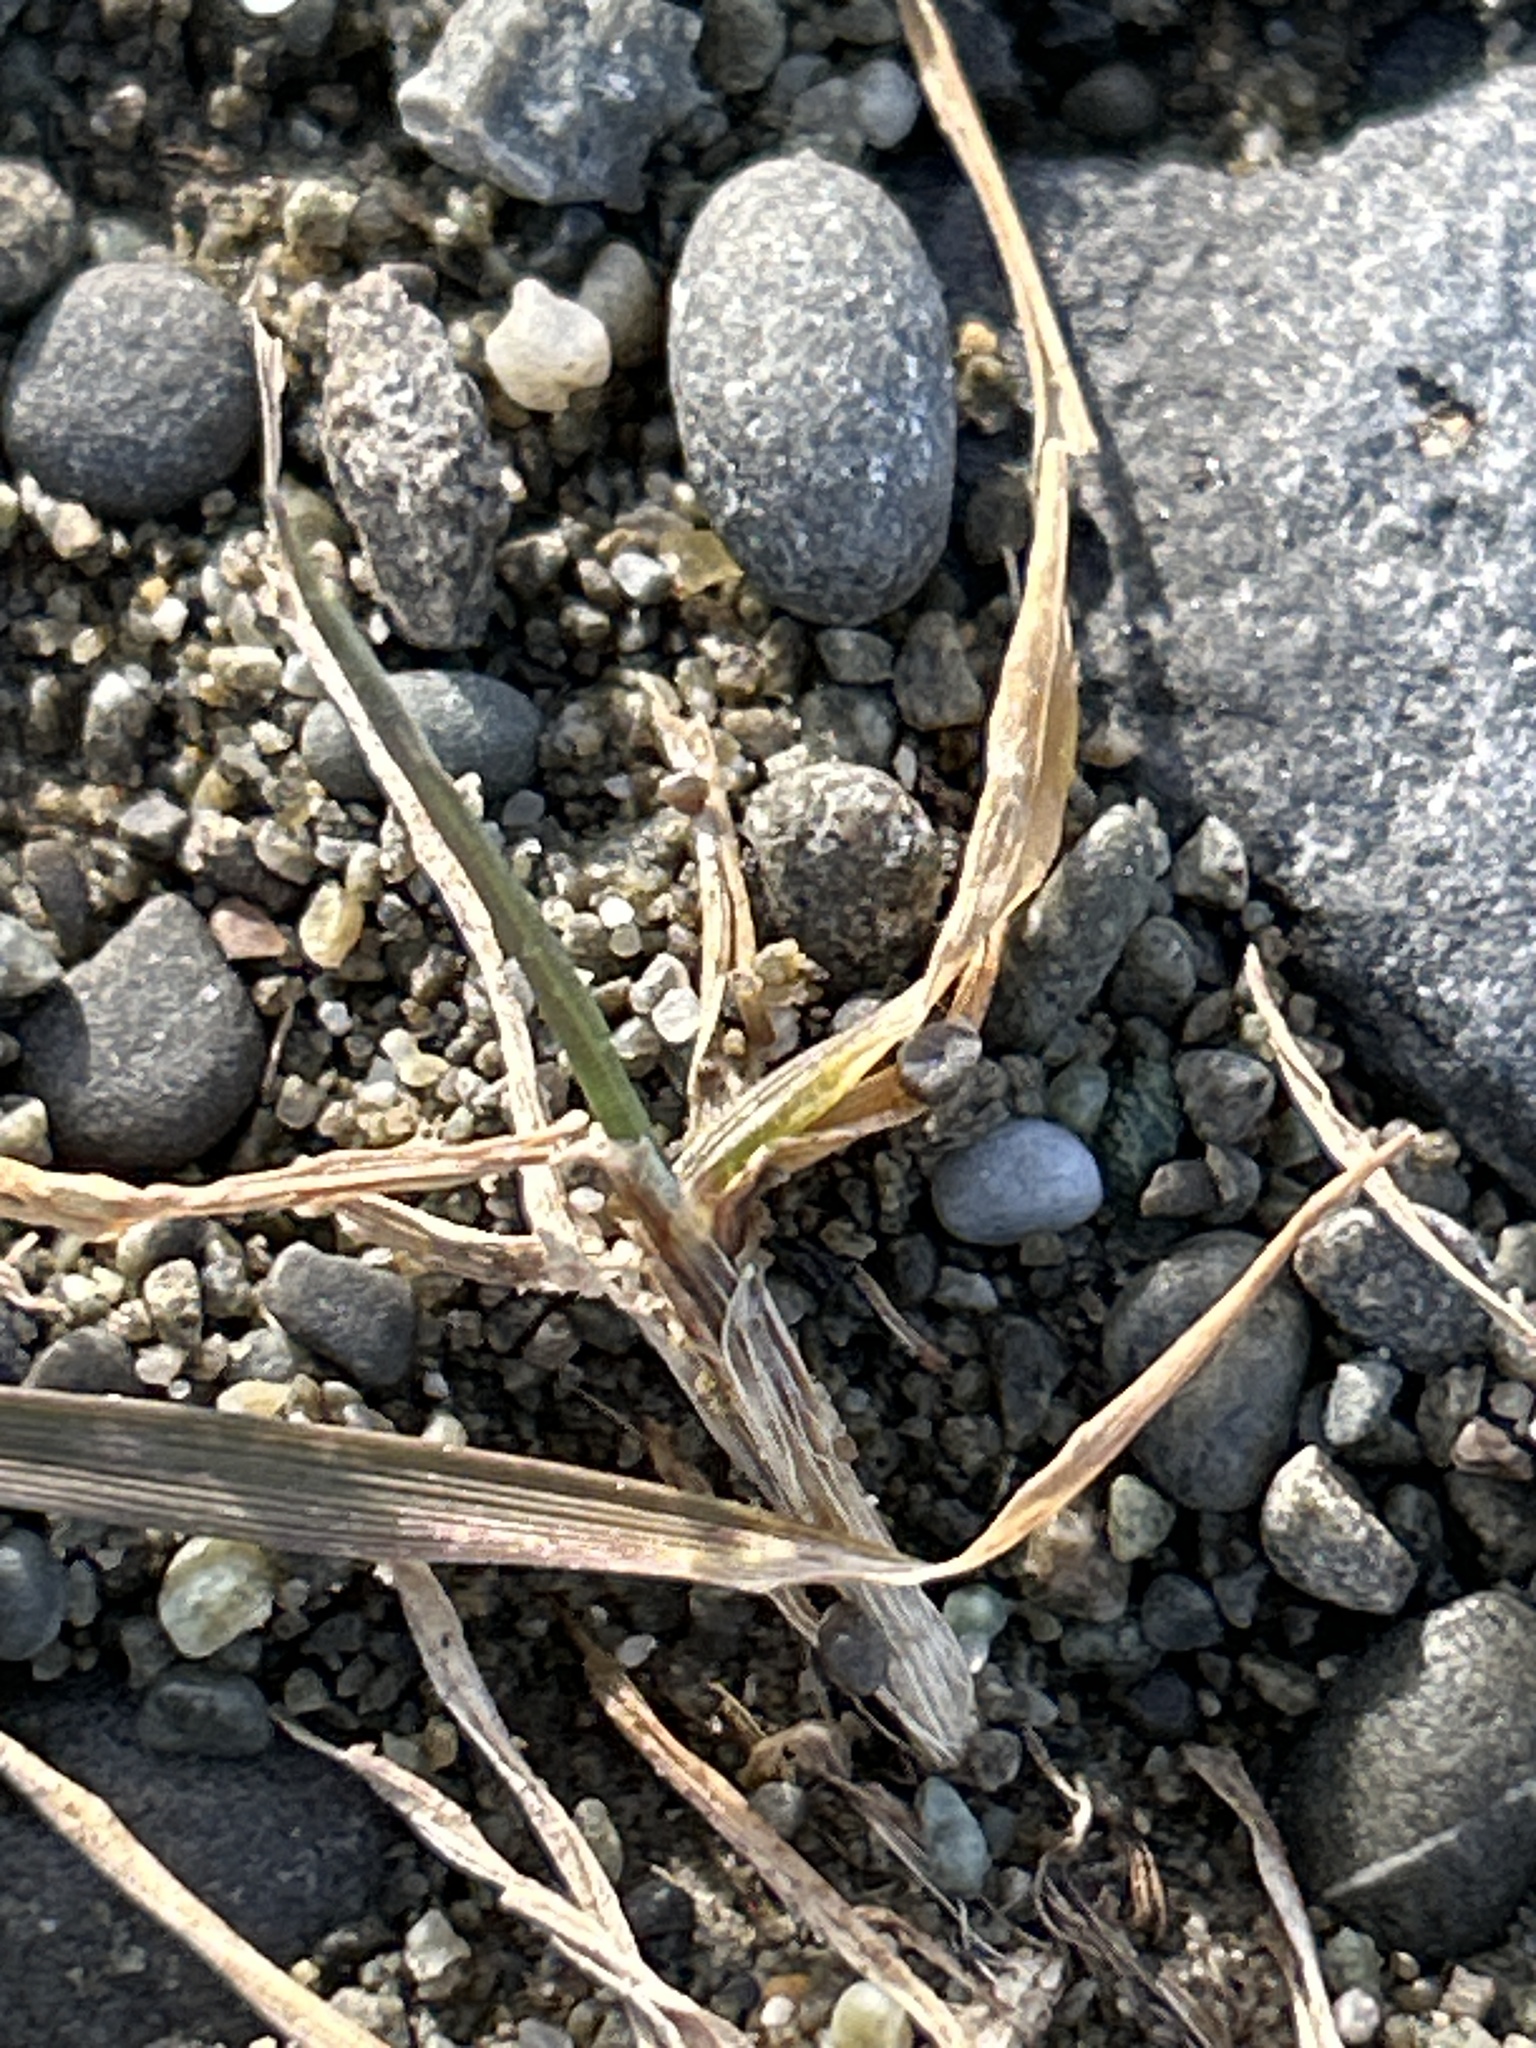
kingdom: Plantae
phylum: Tracheophyta
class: Liliopsida
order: Poales
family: Poaceae
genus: Zoysia
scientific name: Zoysia minima
